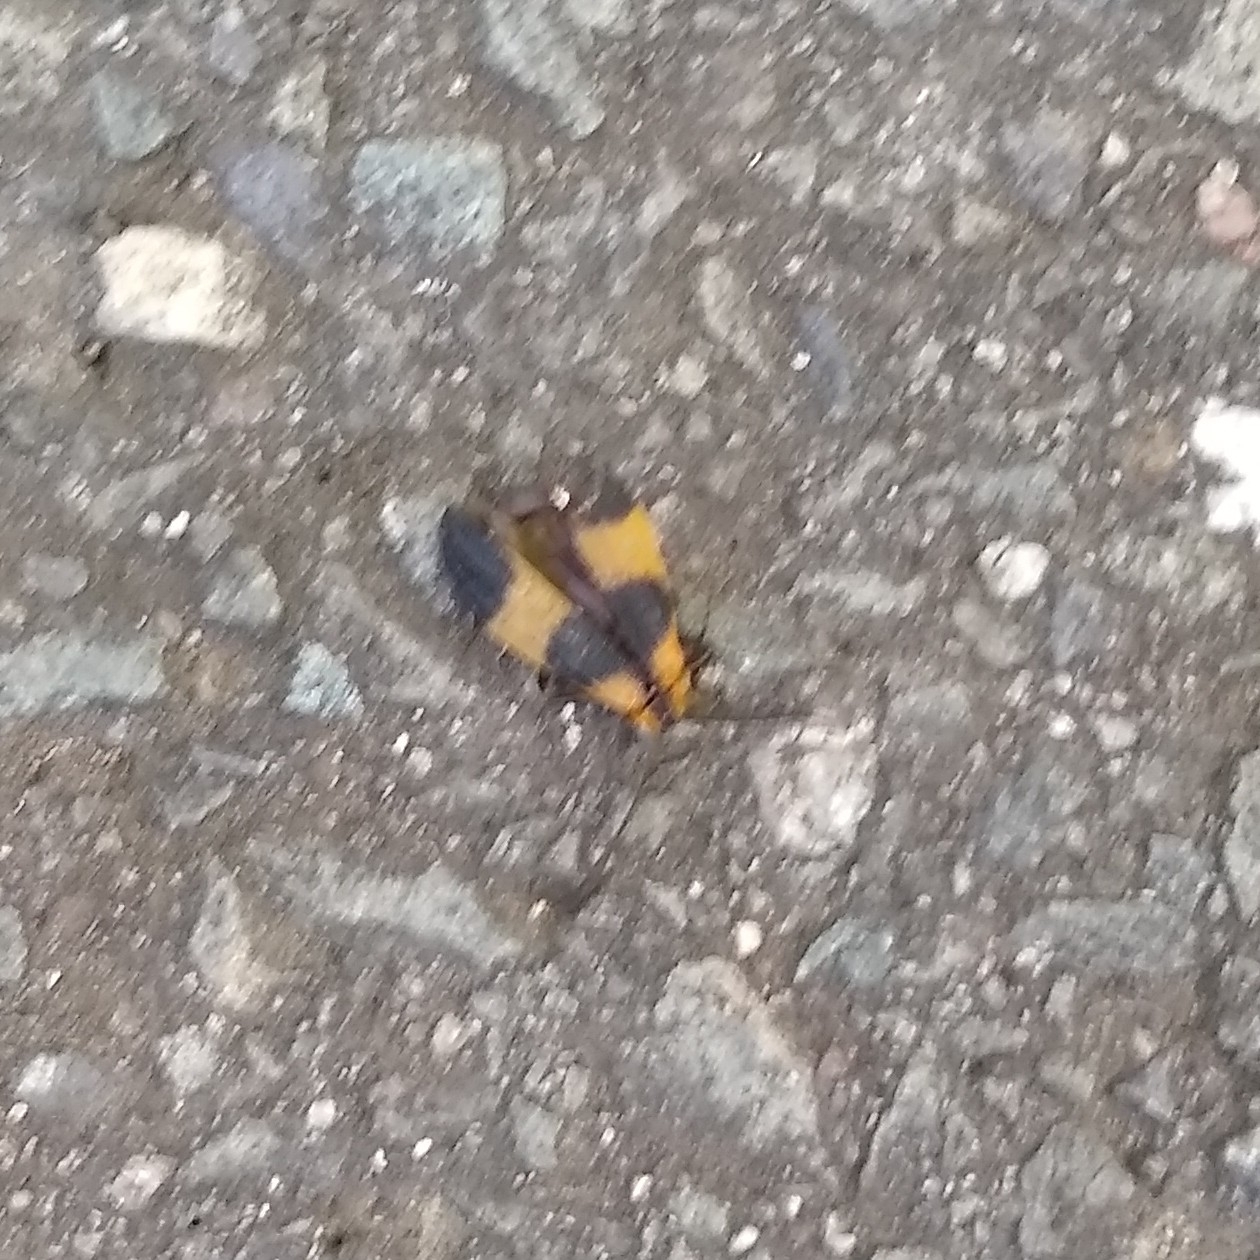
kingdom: Animalia
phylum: Arthropoda
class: Insecta
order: Coleoptera
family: Lycidae
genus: Calopteron
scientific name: Calopteron reticulatum
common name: Banded net-winged beetle
